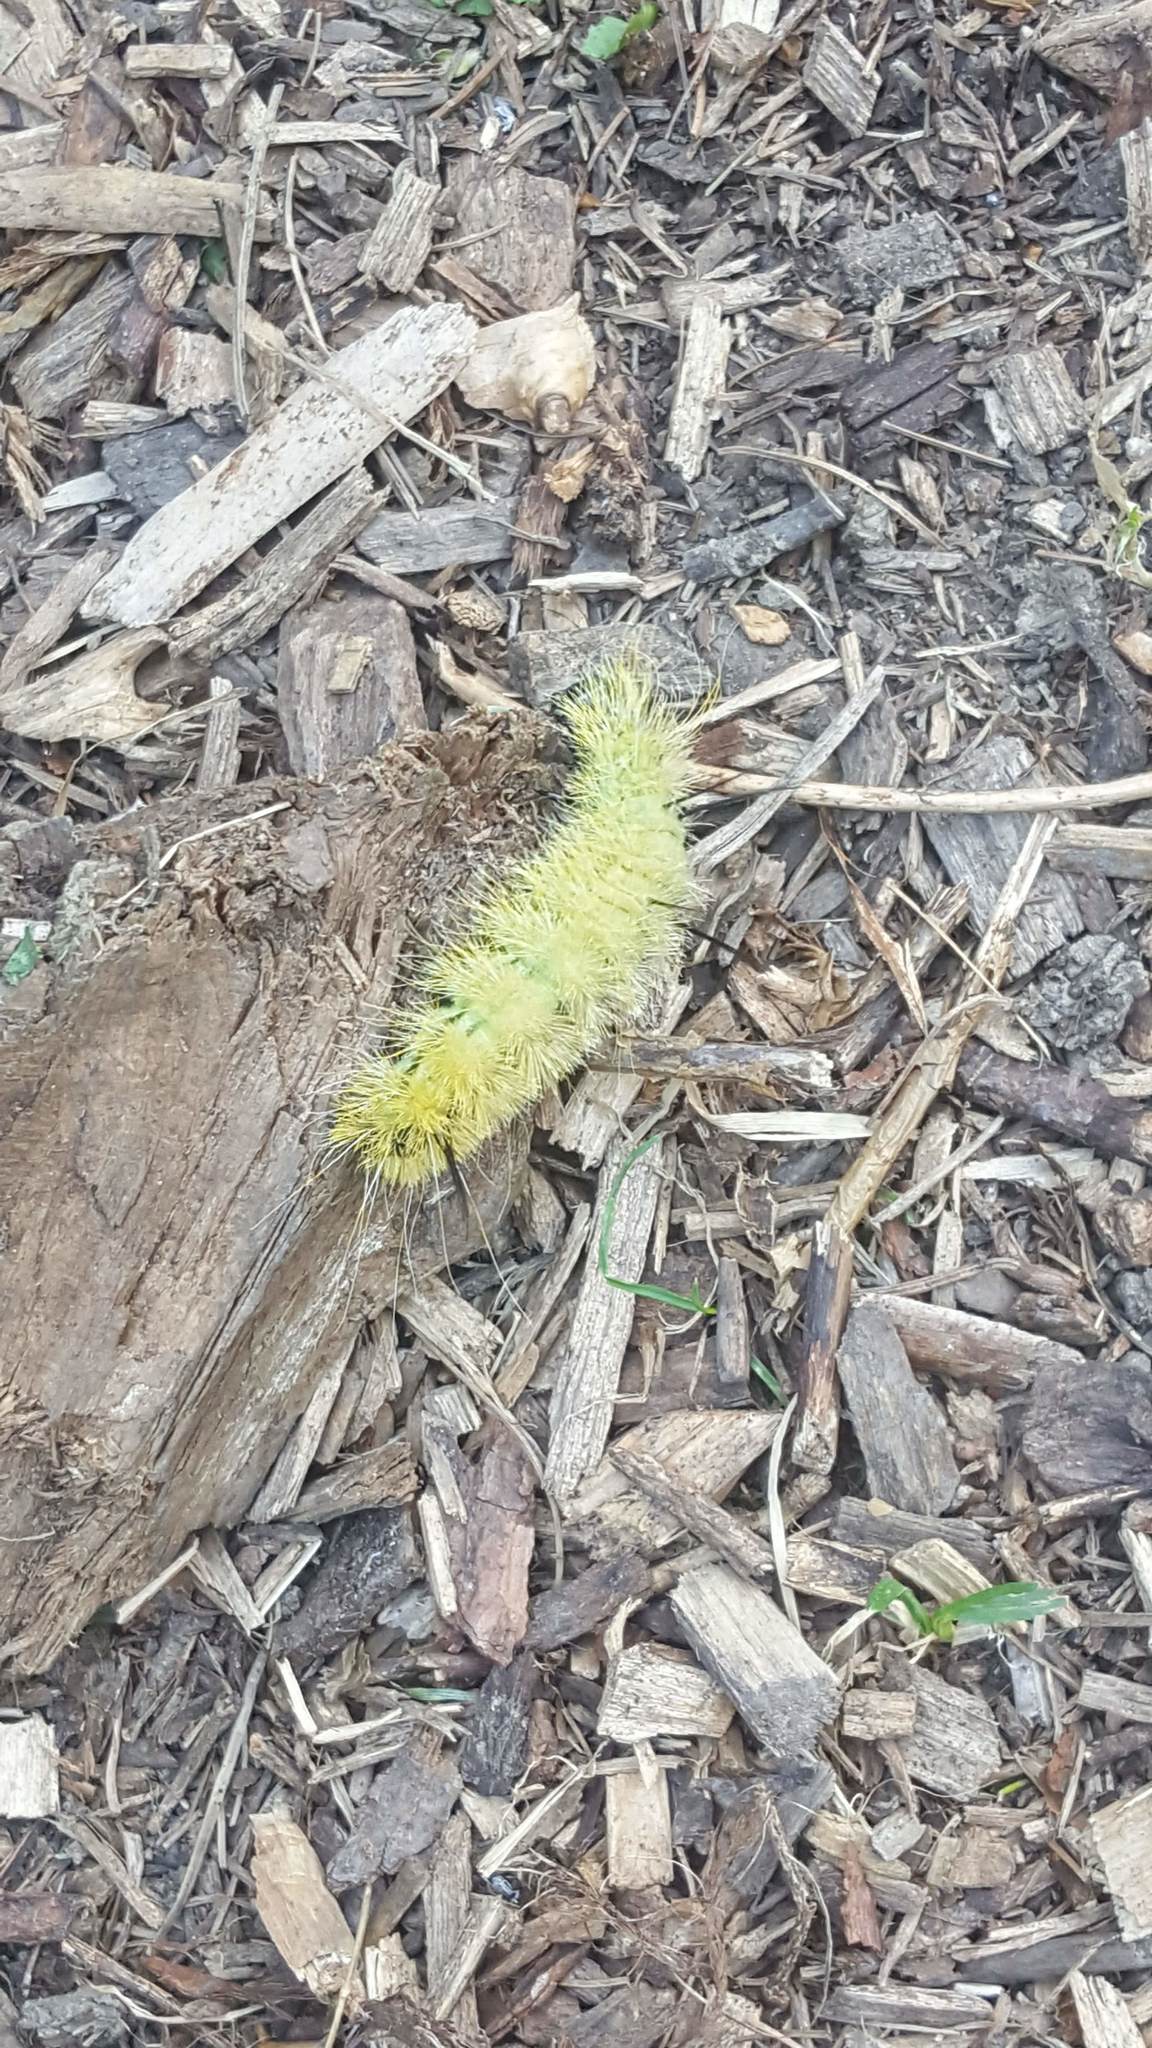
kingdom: Animalia
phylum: Arthropoda
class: Insecta
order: Lepidoptera
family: Noctuidae
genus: Acronicta
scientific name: Acronicta americana
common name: American dagger
